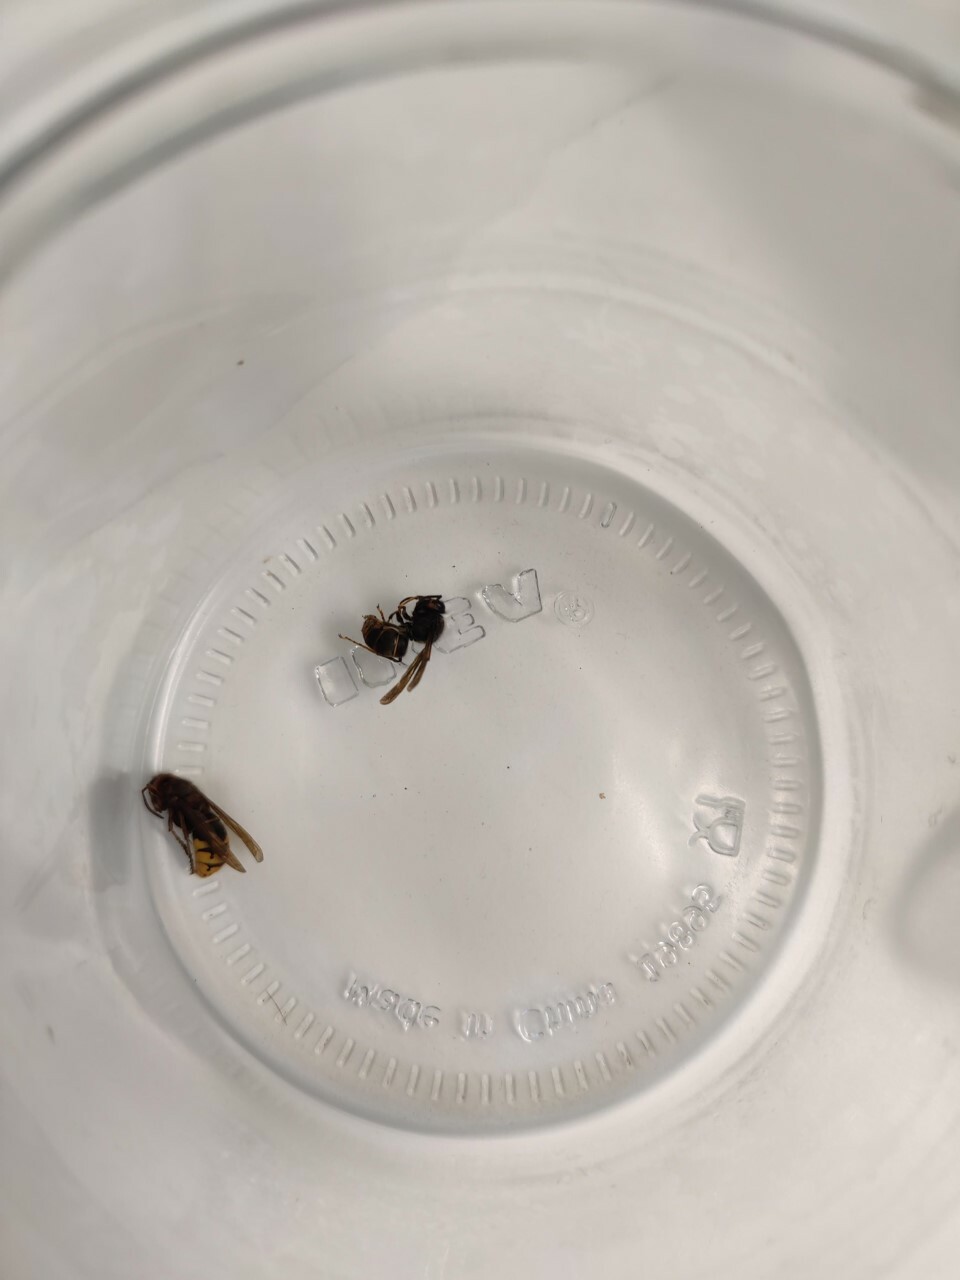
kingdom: Animalia
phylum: Arthropoda
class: Insecta
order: Hymenoptera
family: Vespidae
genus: Vespa
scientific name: Vespa velutina
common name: Asian hornet
